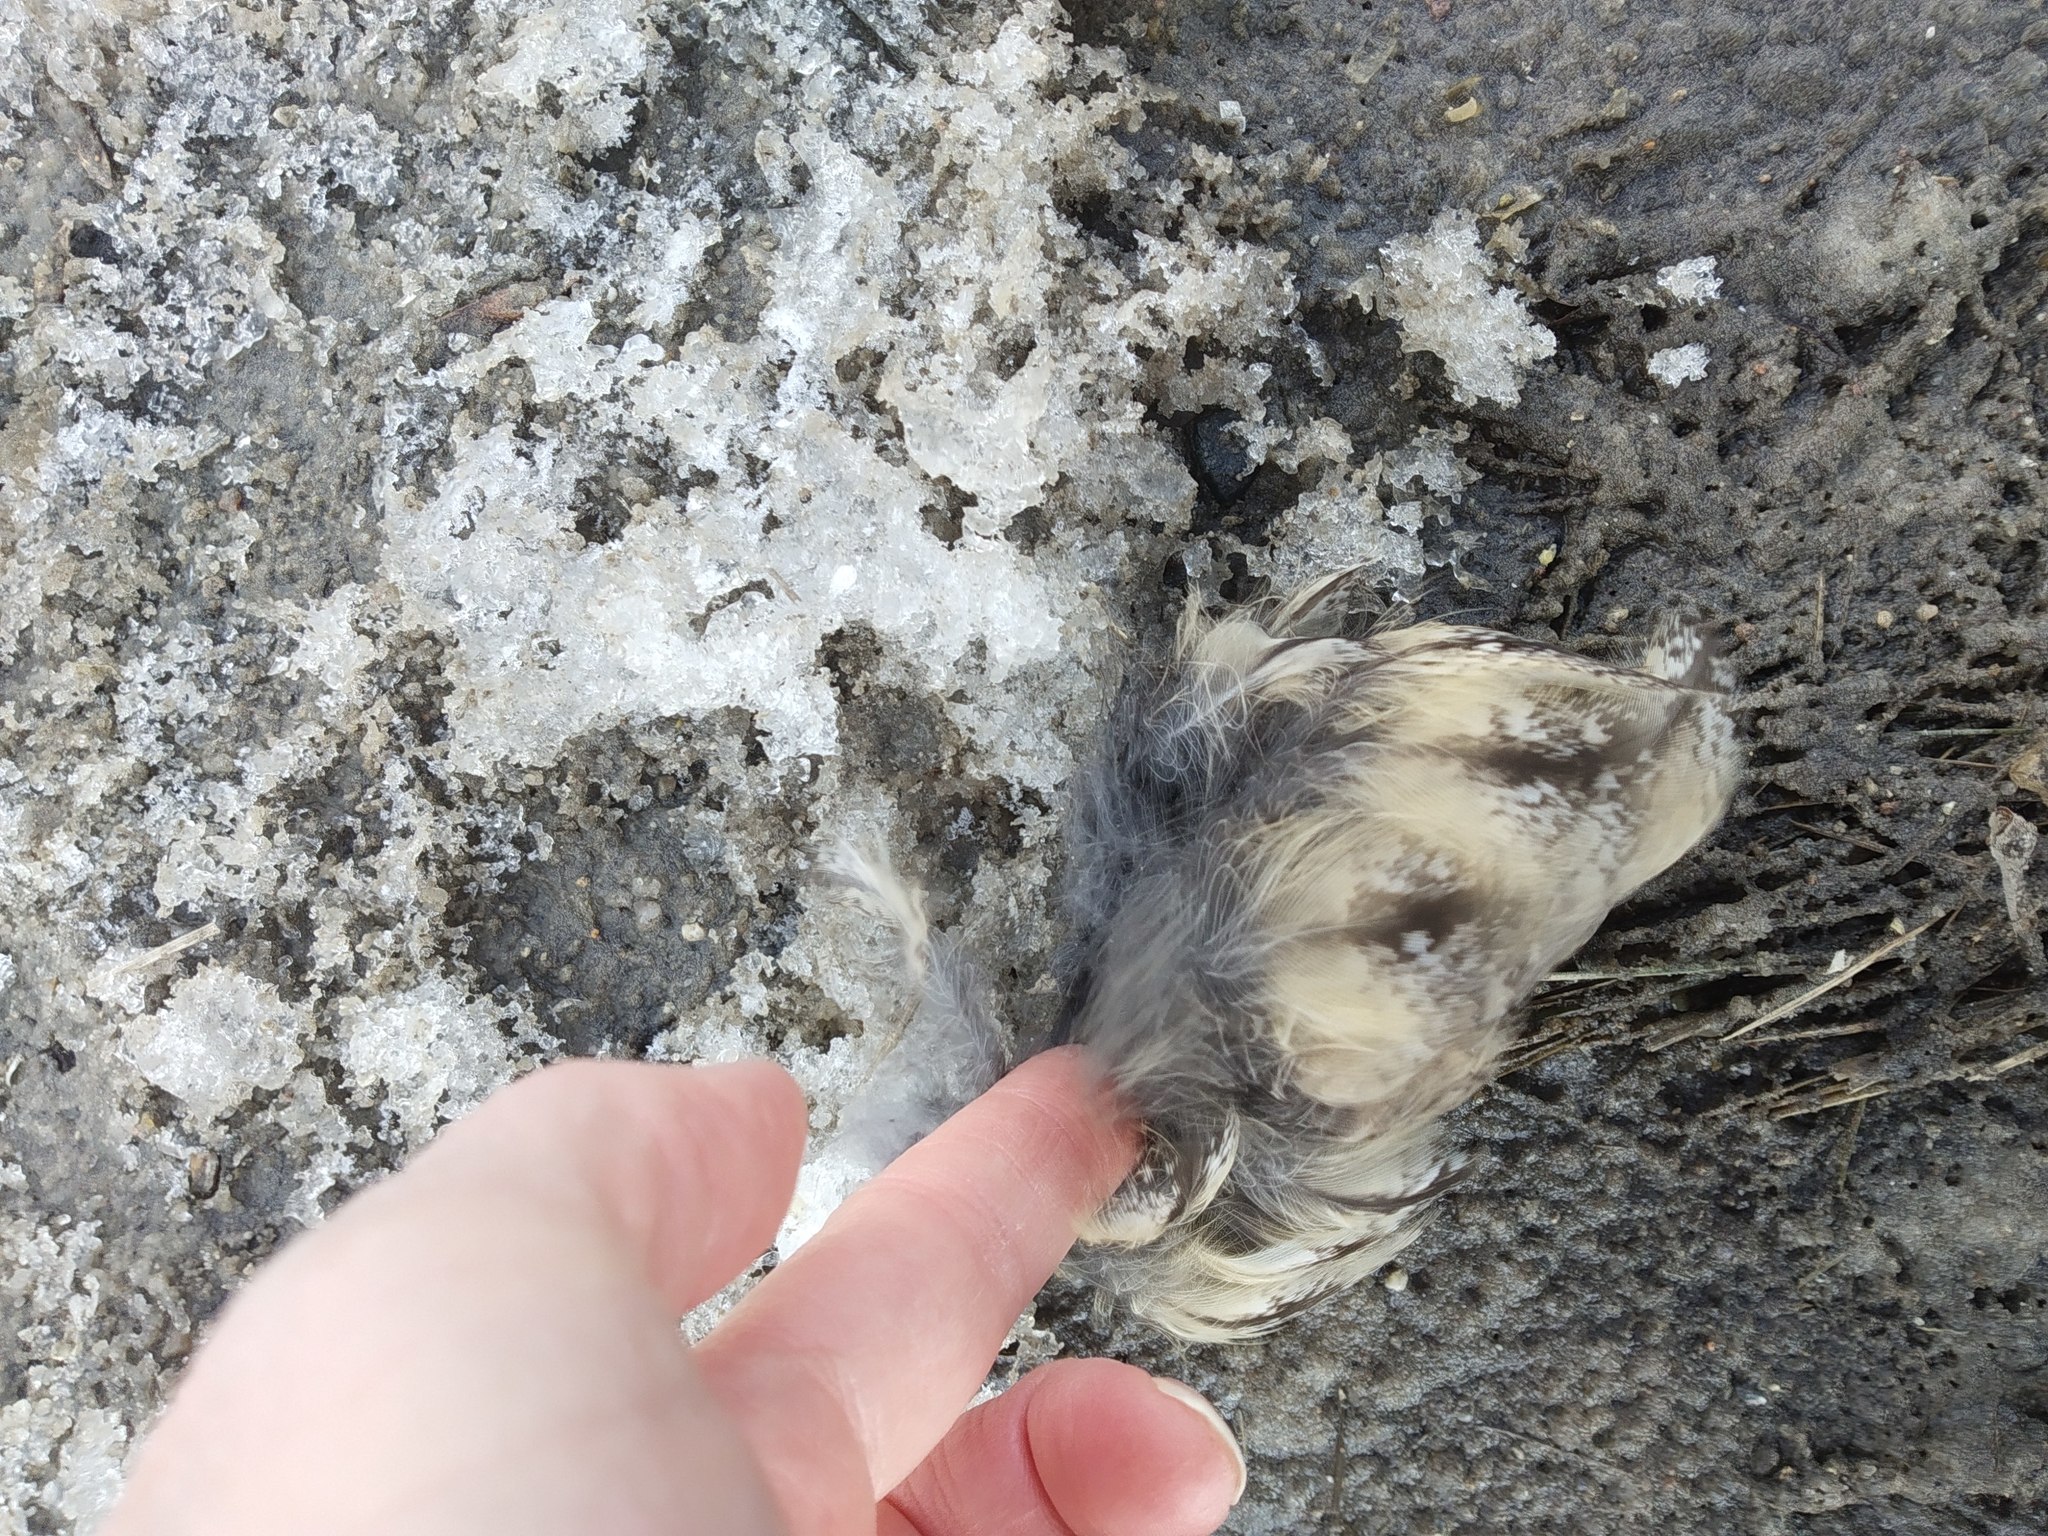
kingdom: Animalia
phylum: Chordata
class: Aves
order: Strigiformes
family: Strigidae
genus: Asio
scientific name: Asio otus
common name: Long-eared owl
